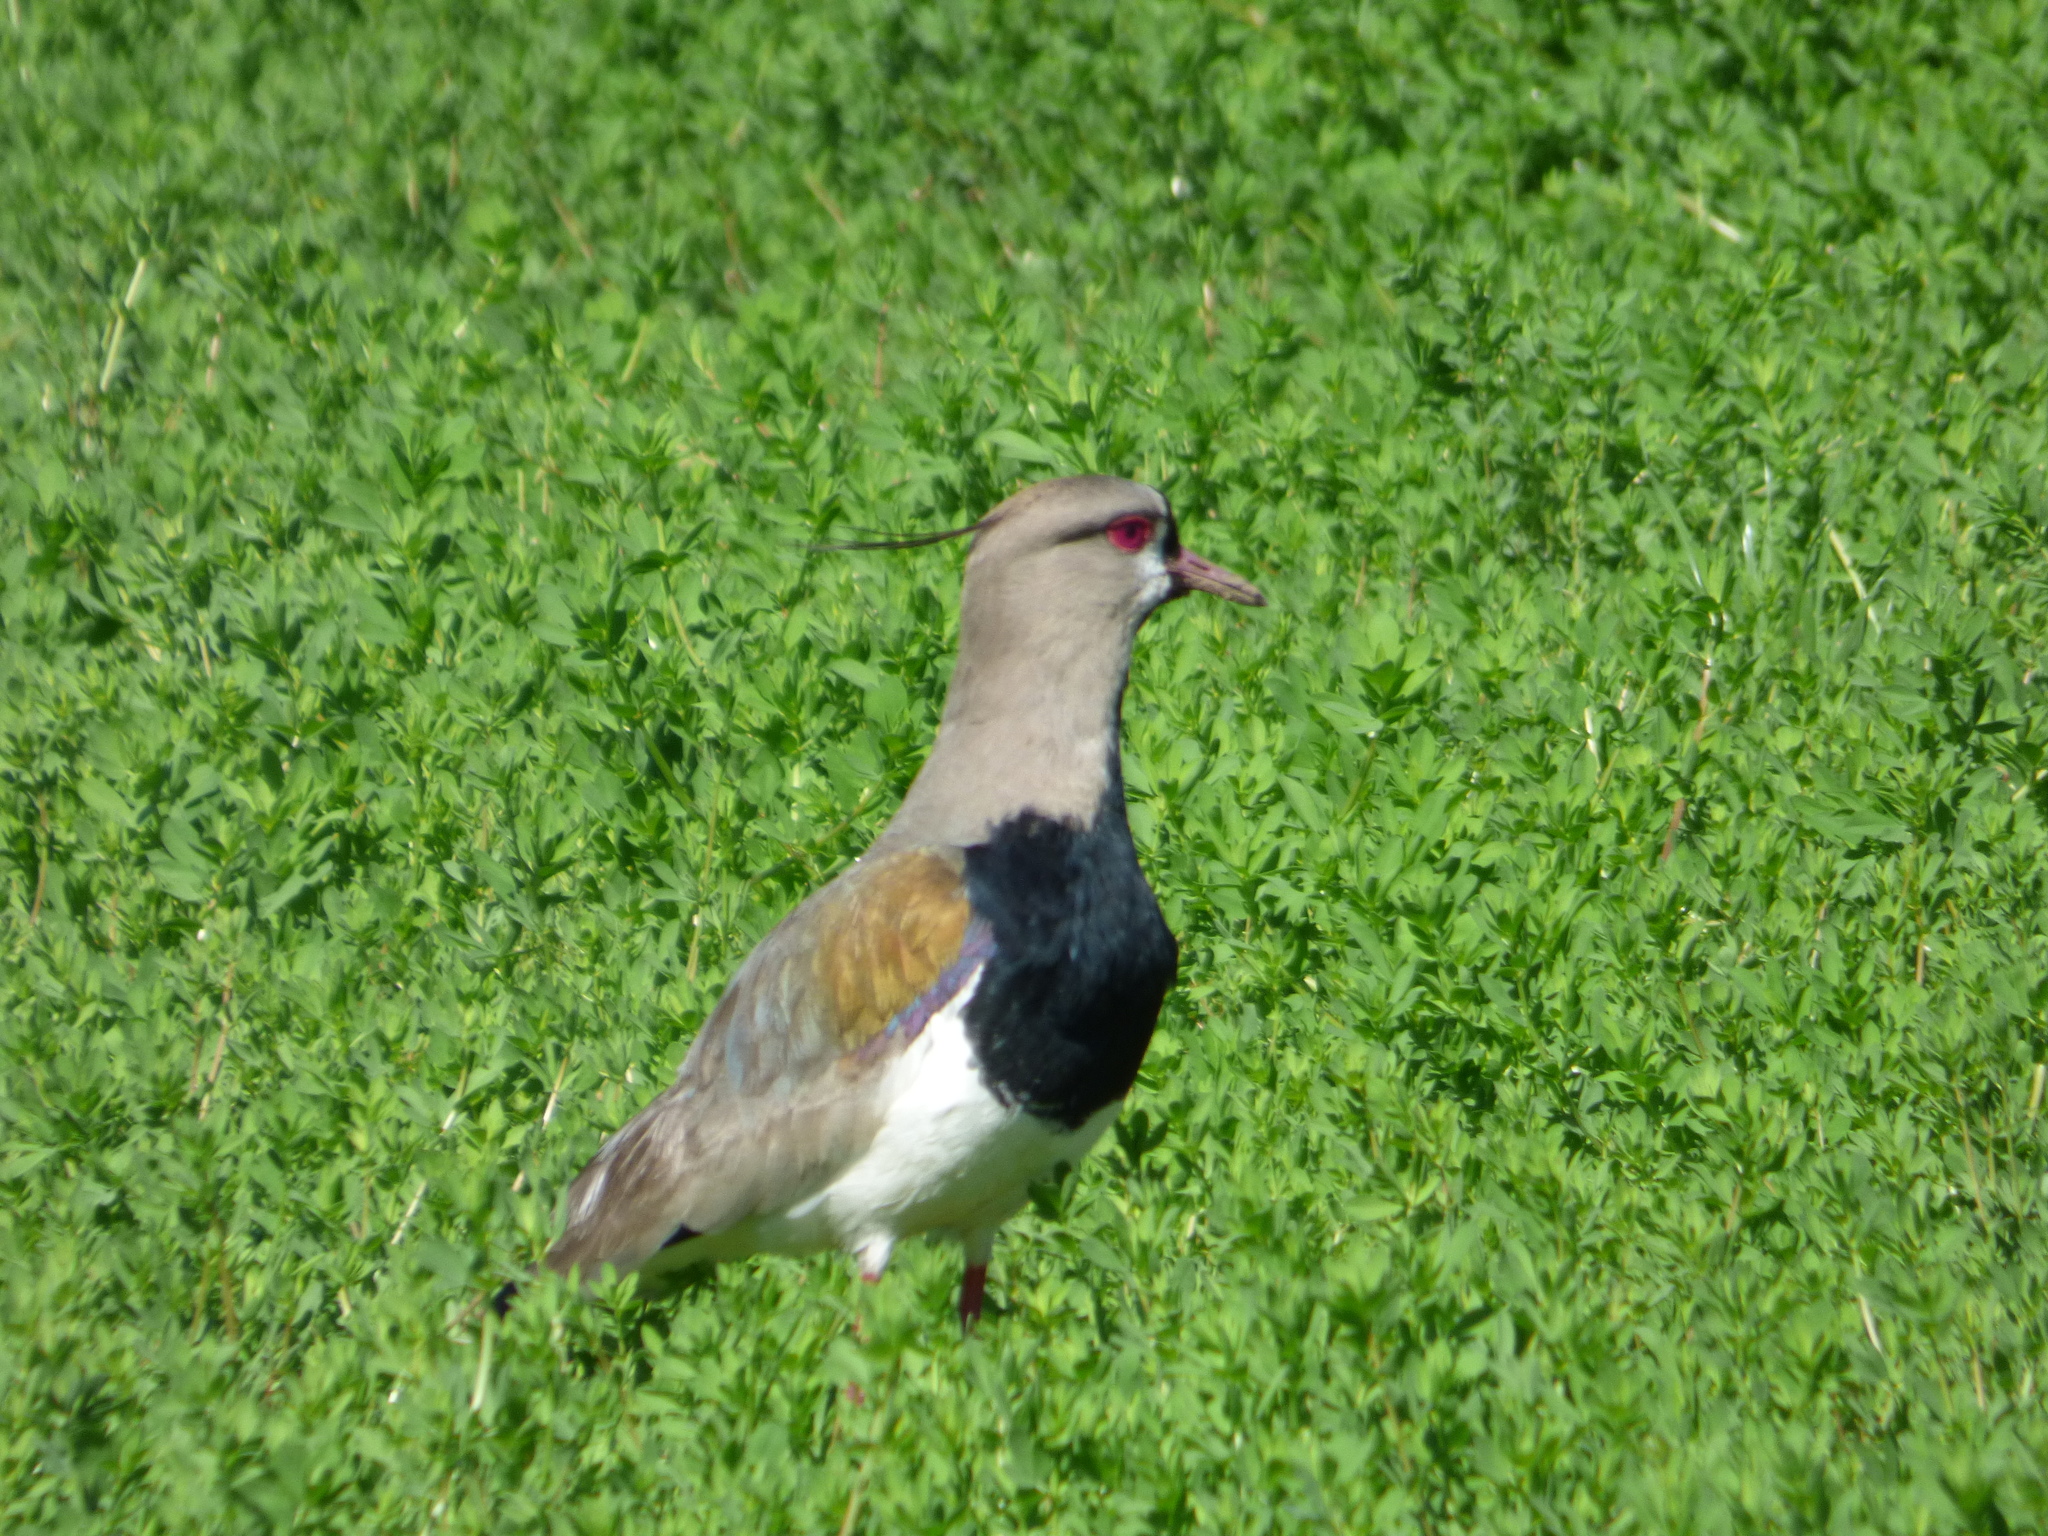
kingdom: Animalia
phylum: Chordata
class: Aves
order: Charadriiformes
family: Charadriidae
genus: Vanellus
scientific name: Vanellus chilensis
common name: Southern lapwing
